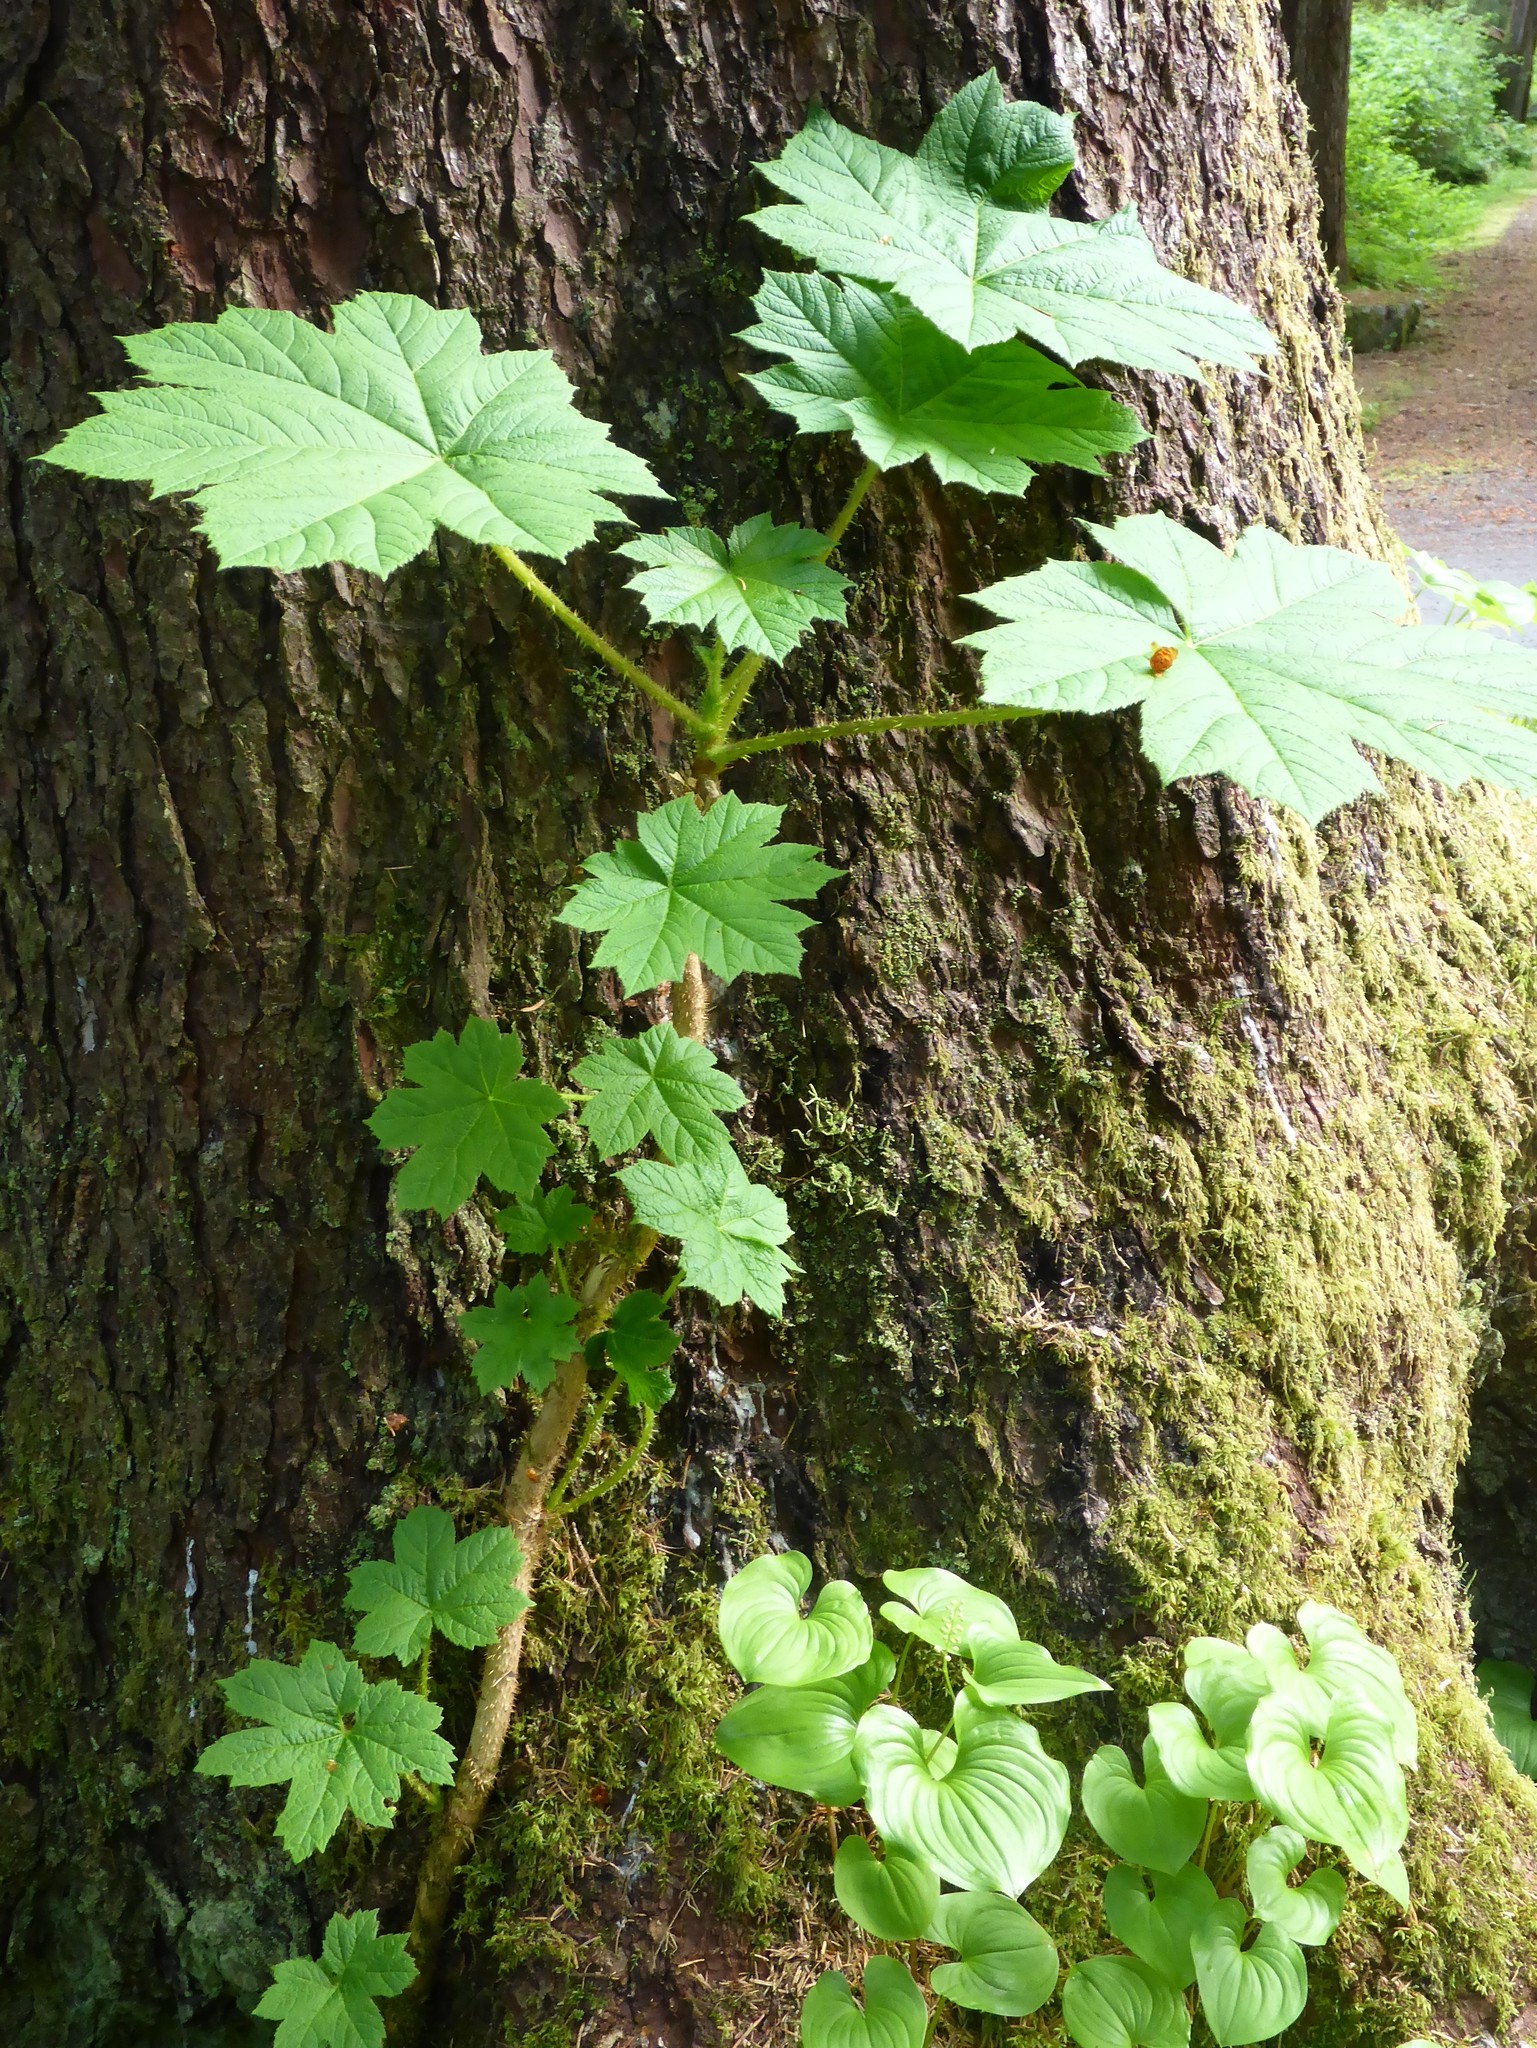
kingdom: Plantae
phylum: Tracheophyta
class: Magnoliopsida
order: Apiales
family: Araliaceae
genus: Oplopanax
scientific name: Oplopanax horridus
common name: Devil's walking-stick
